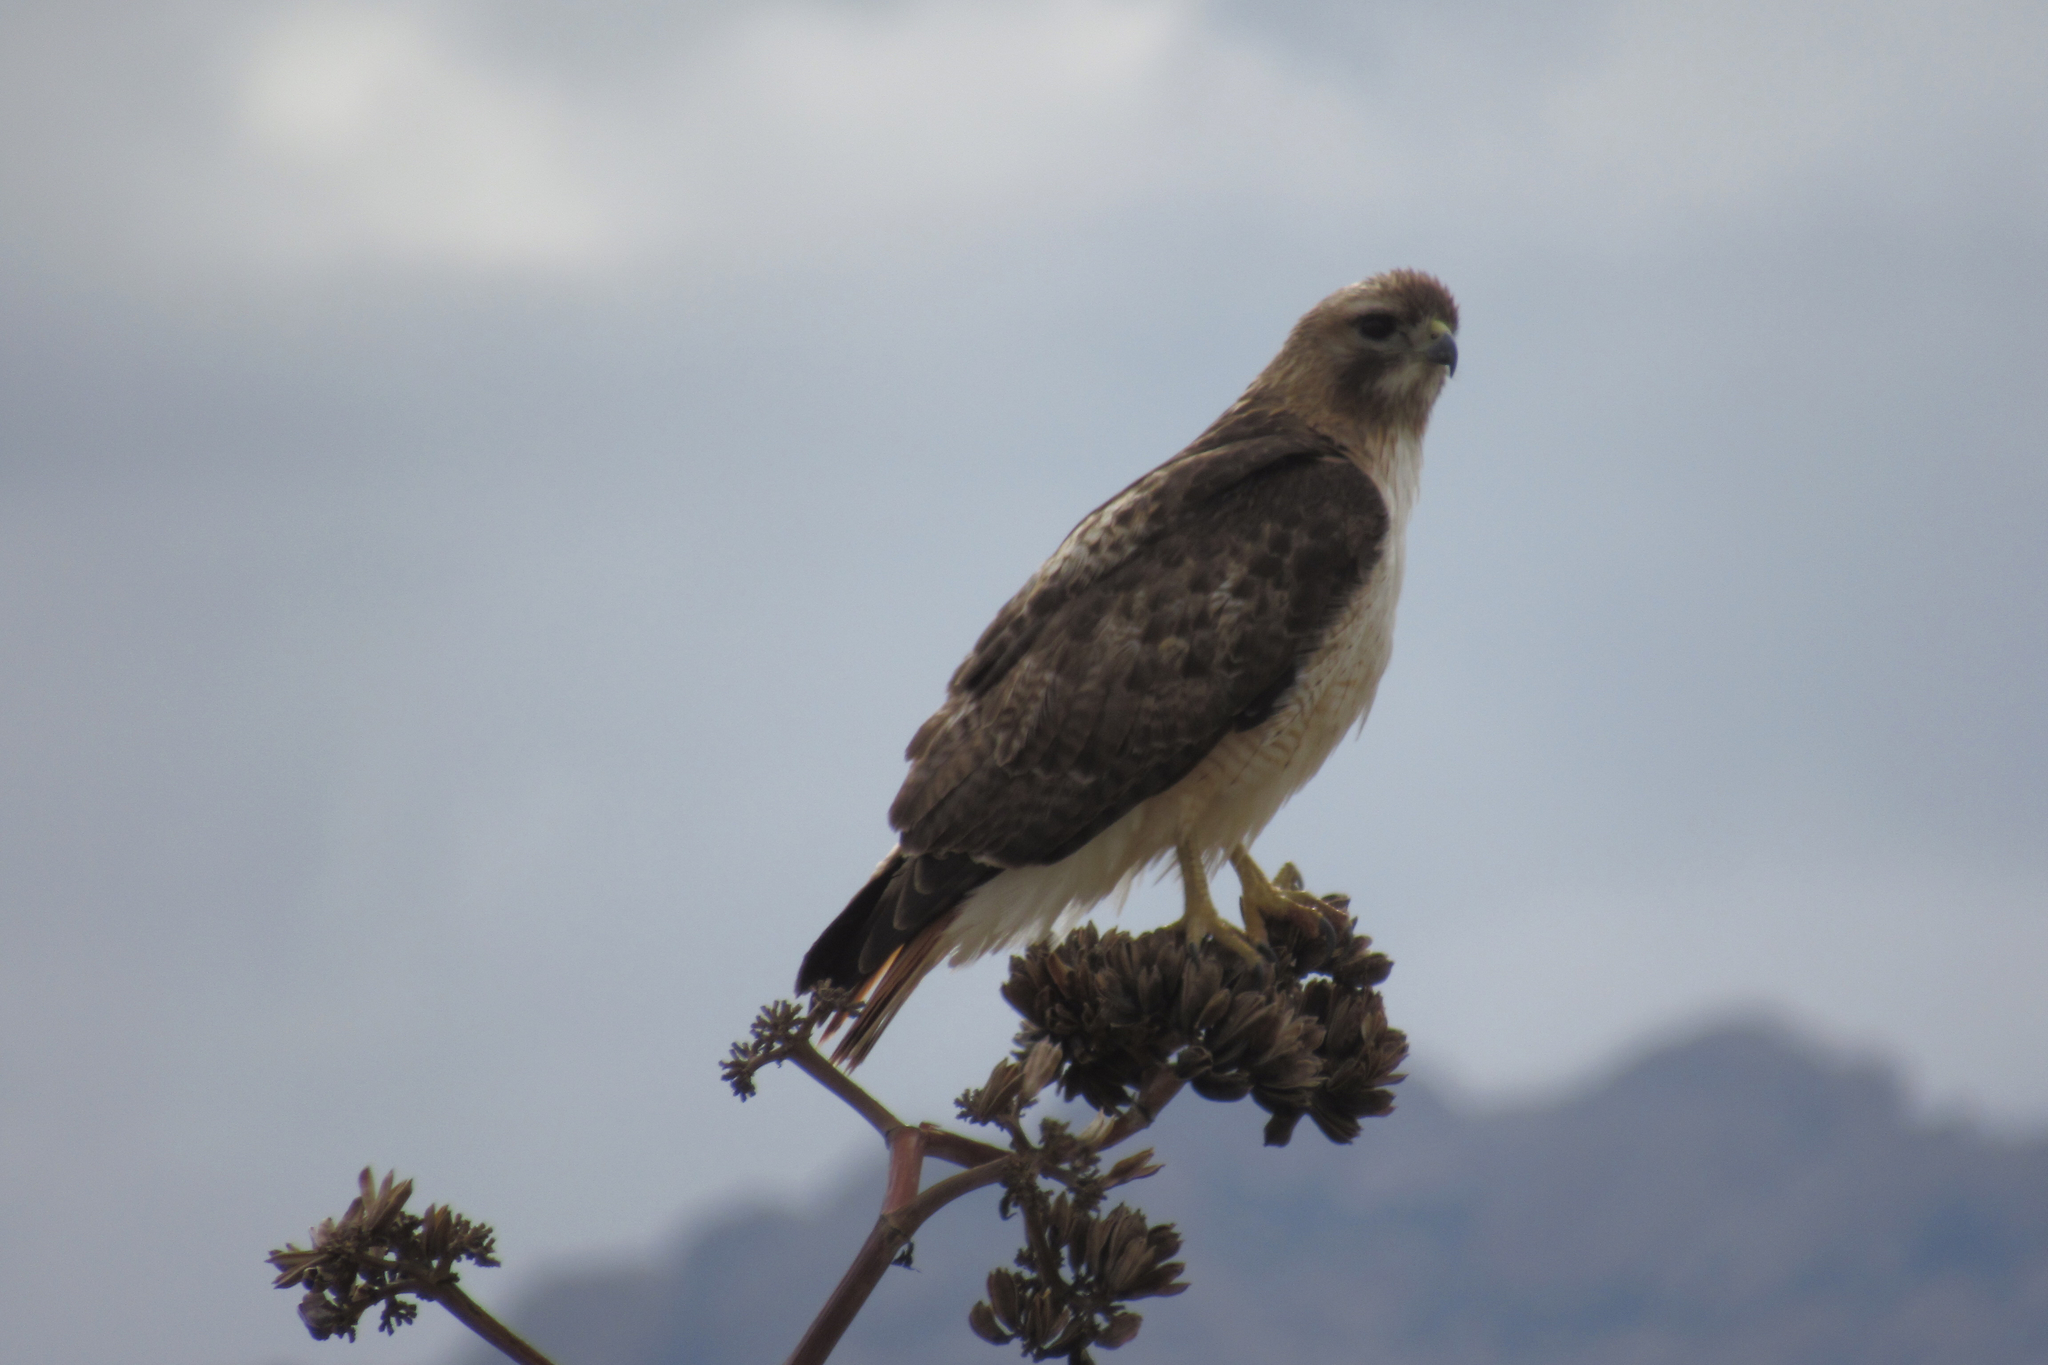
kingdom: Animalia
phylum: Chordata
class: Aves
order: Accipitriformes
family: Accipitridae
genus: Buteo
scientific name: Buteo jamaicensis
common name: Red-tailed hawk
